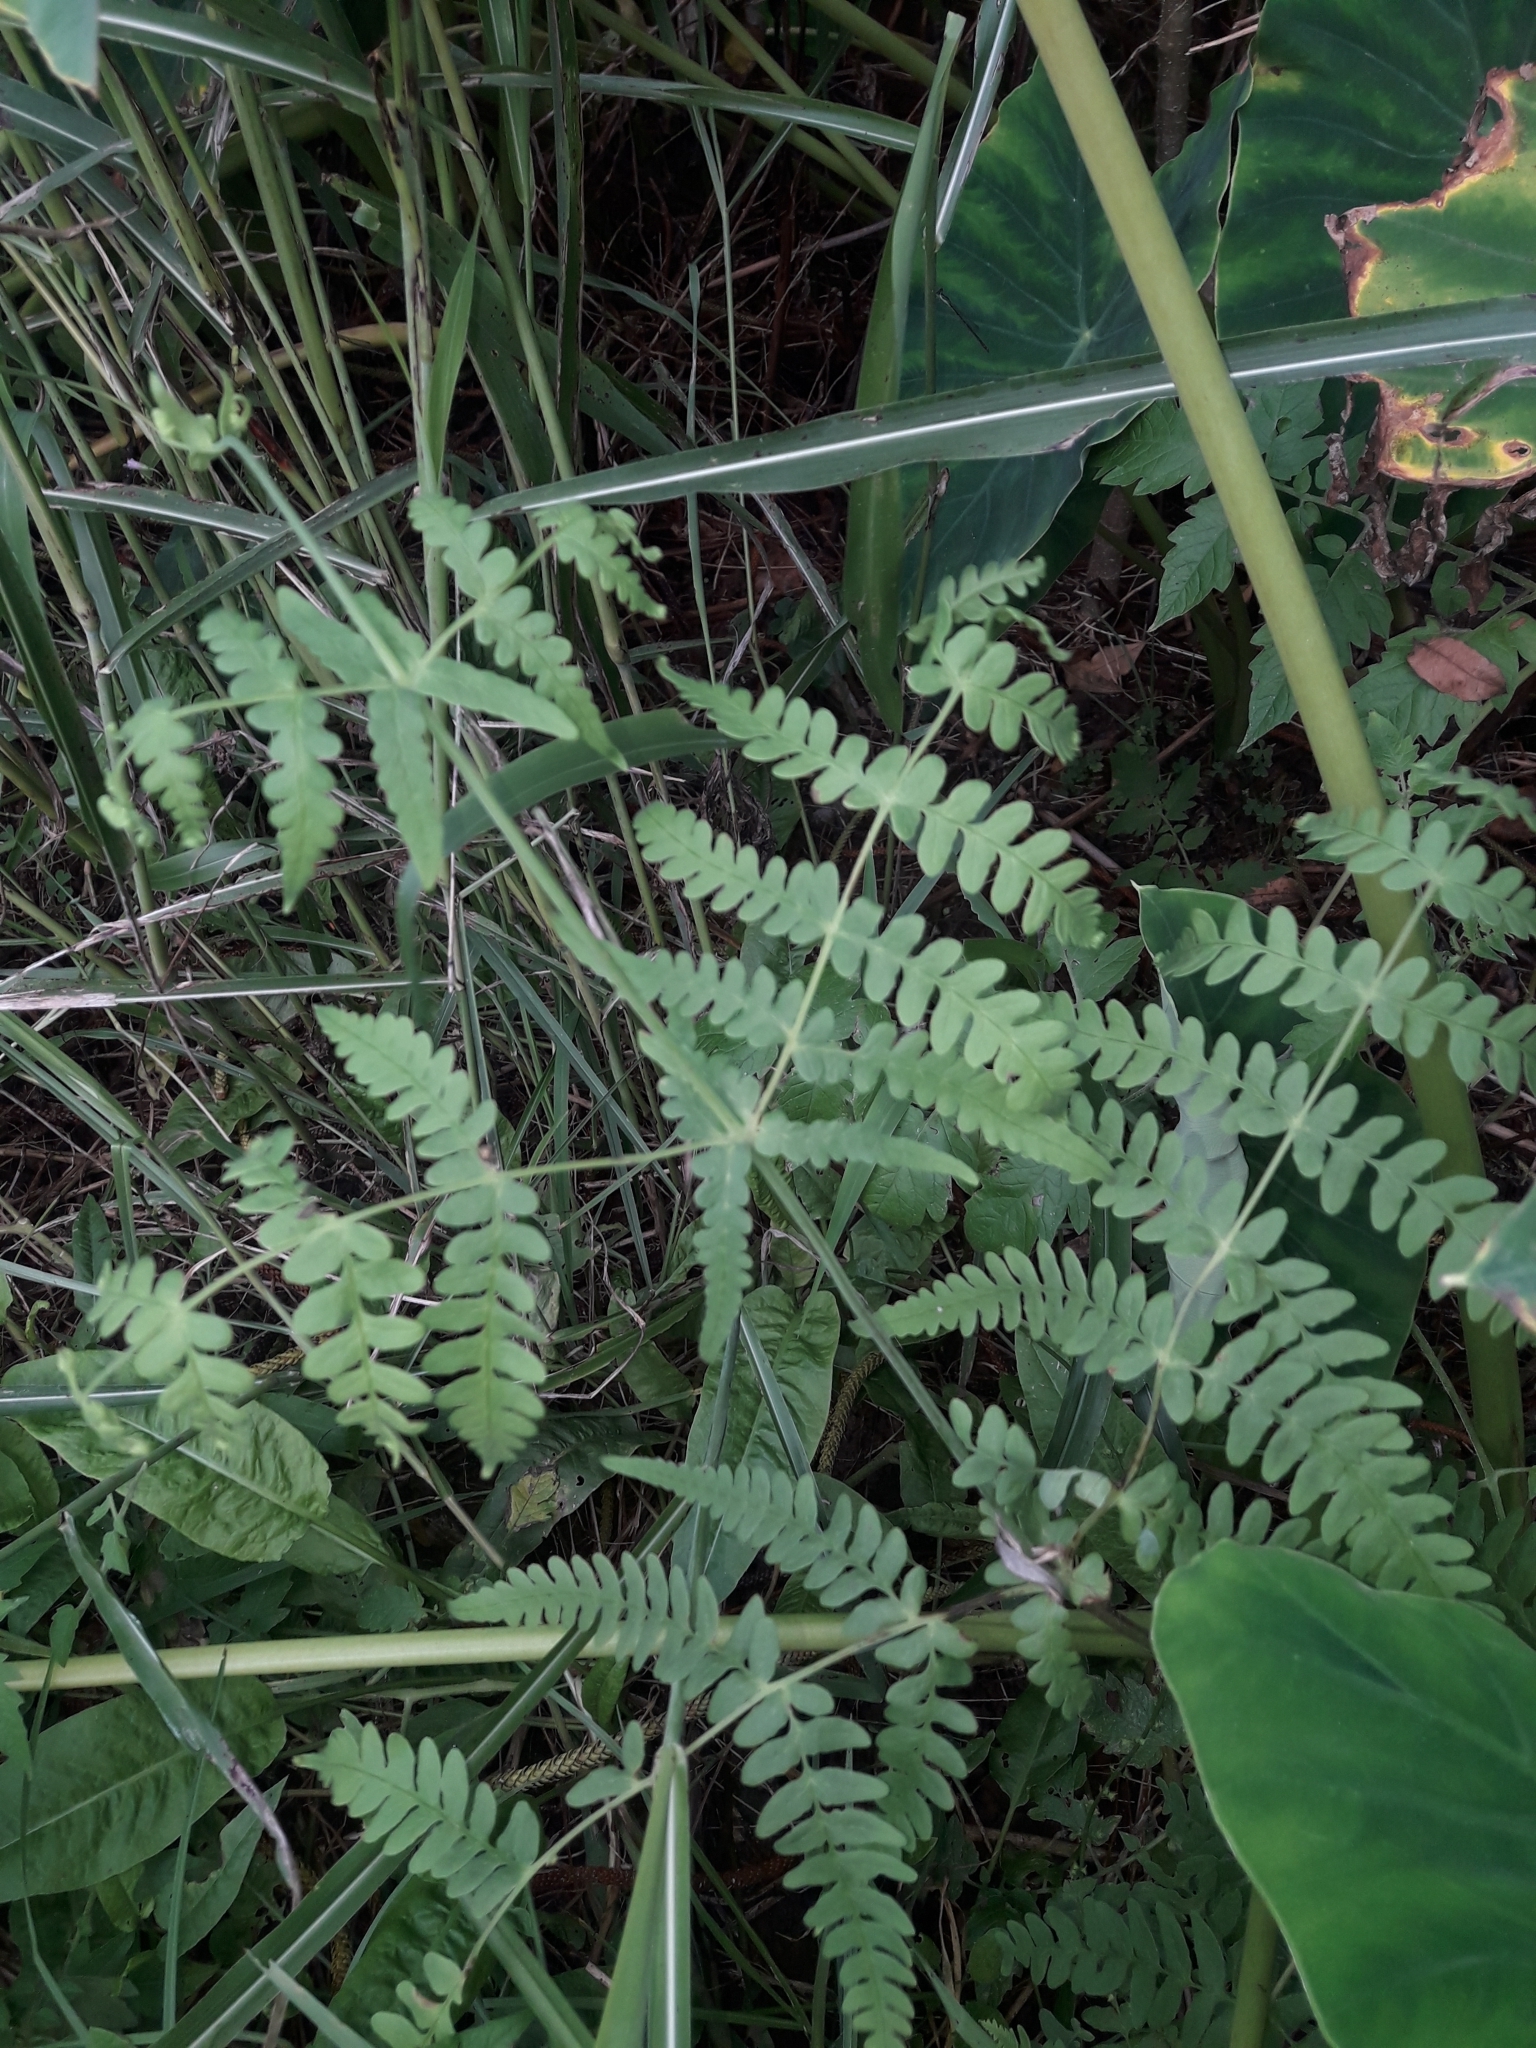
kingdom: Plantae
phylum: Tracheophyta
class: Polypodiopsida
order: Polypodiales
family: Dennstaedtiaceae
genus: Histiopteris
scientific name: Histiopteris incisa
